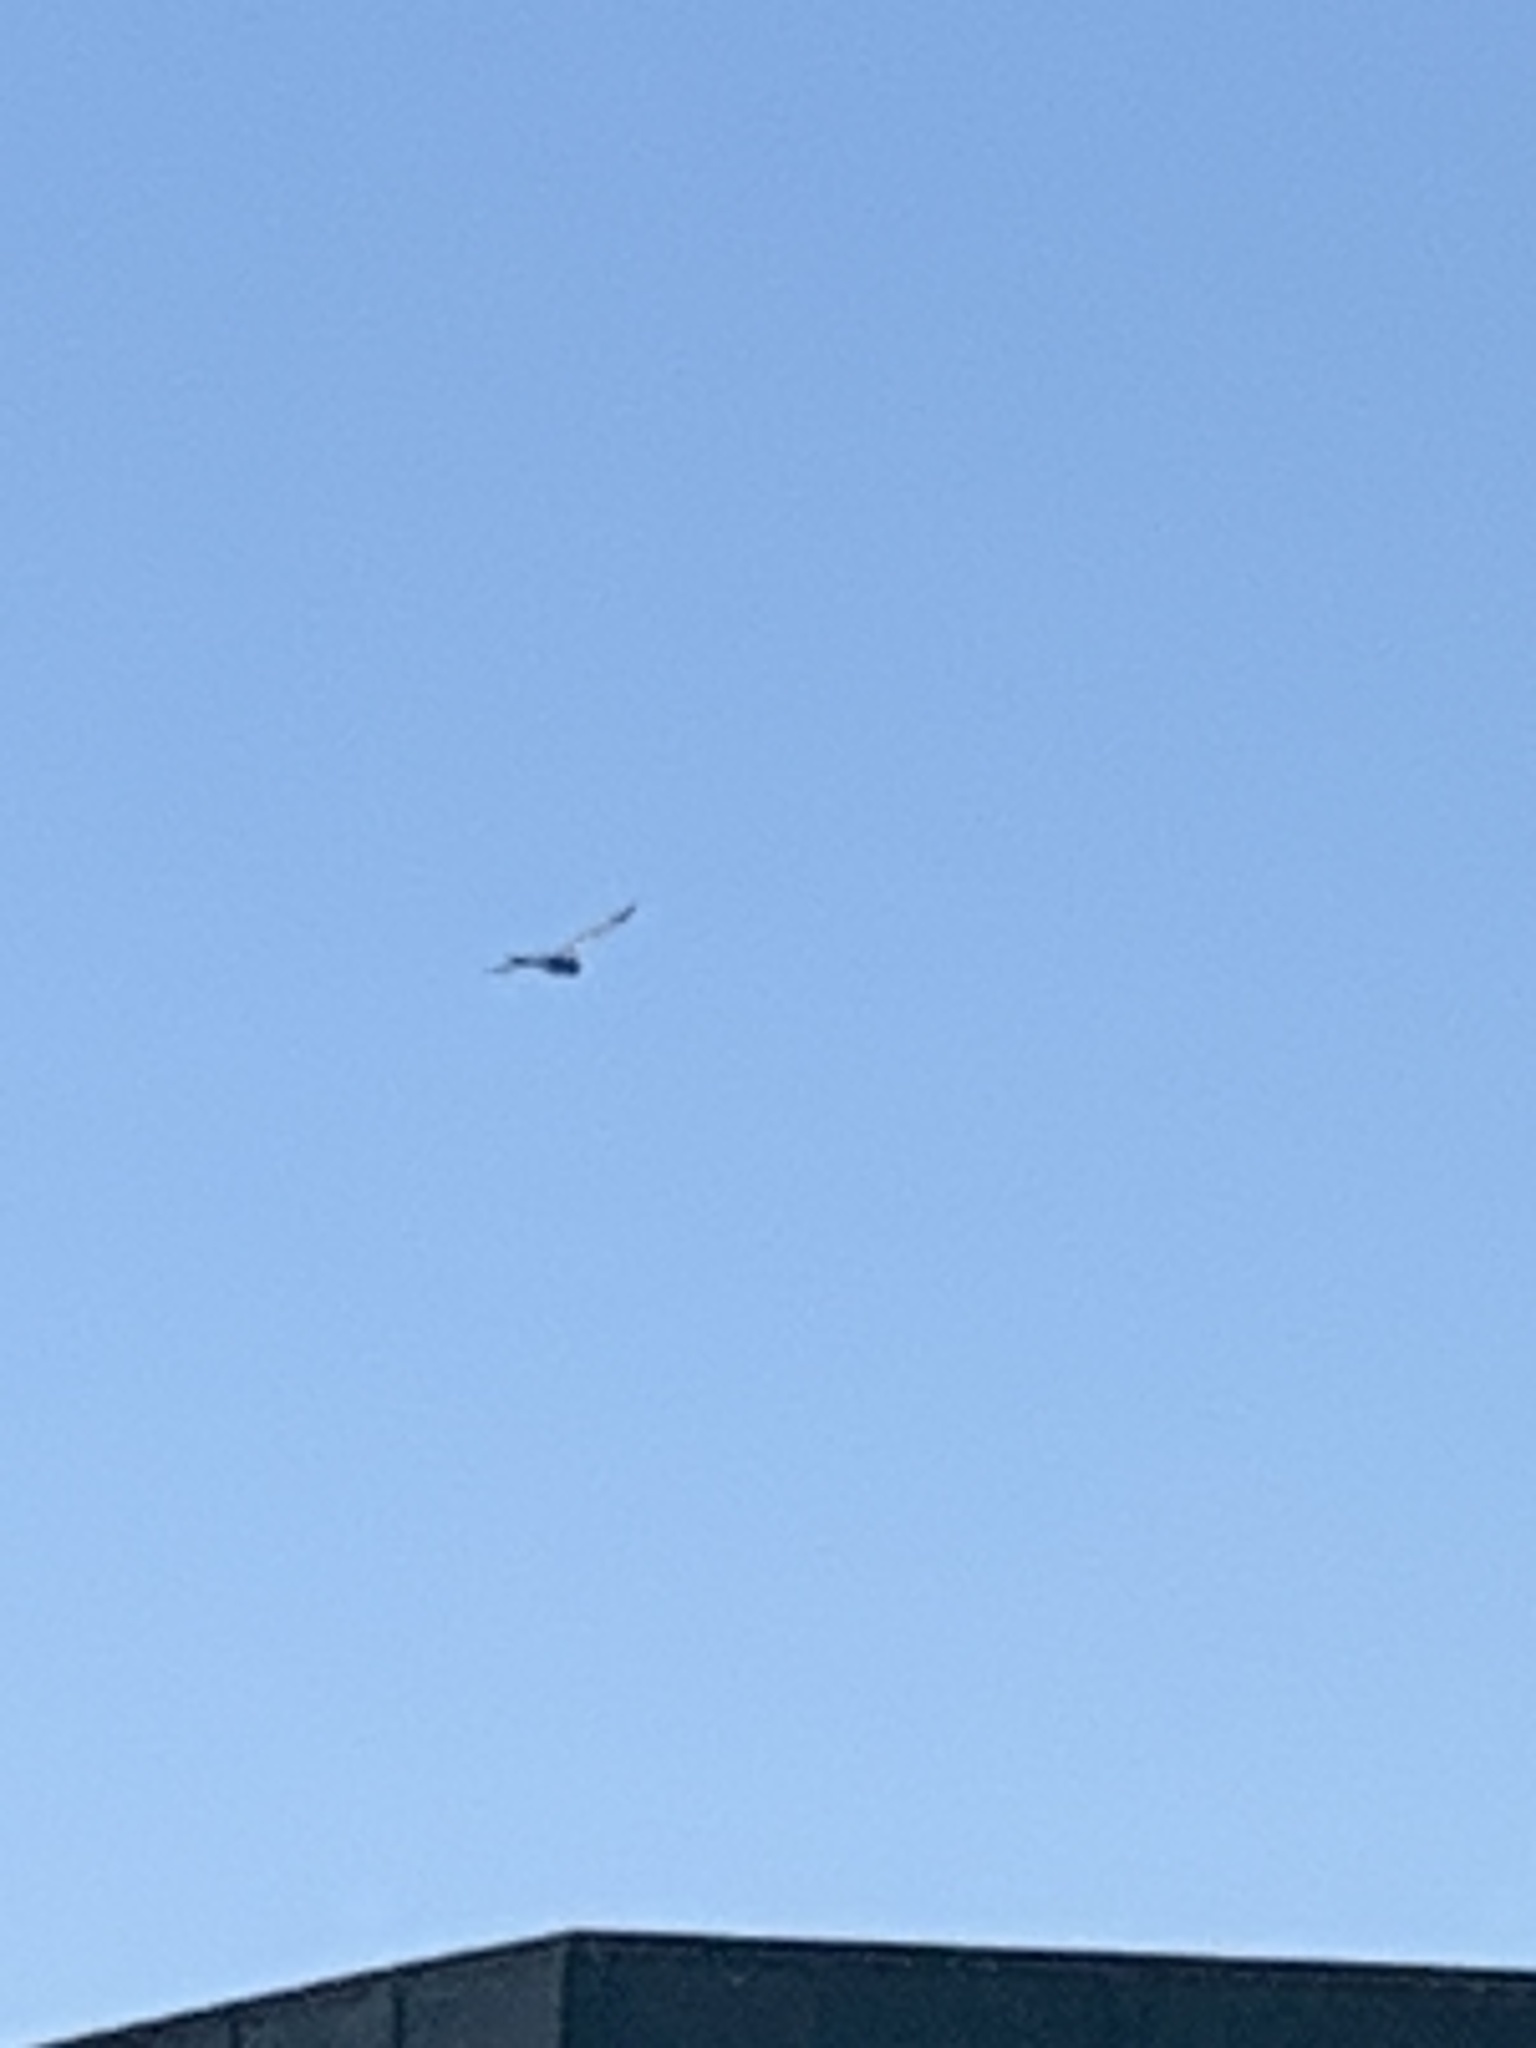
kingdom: Animalia
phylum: Chordata
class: Aves
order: Columbiformes
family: Columbidae
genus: Columba
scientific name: Columba livia
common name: Rock pigeon
